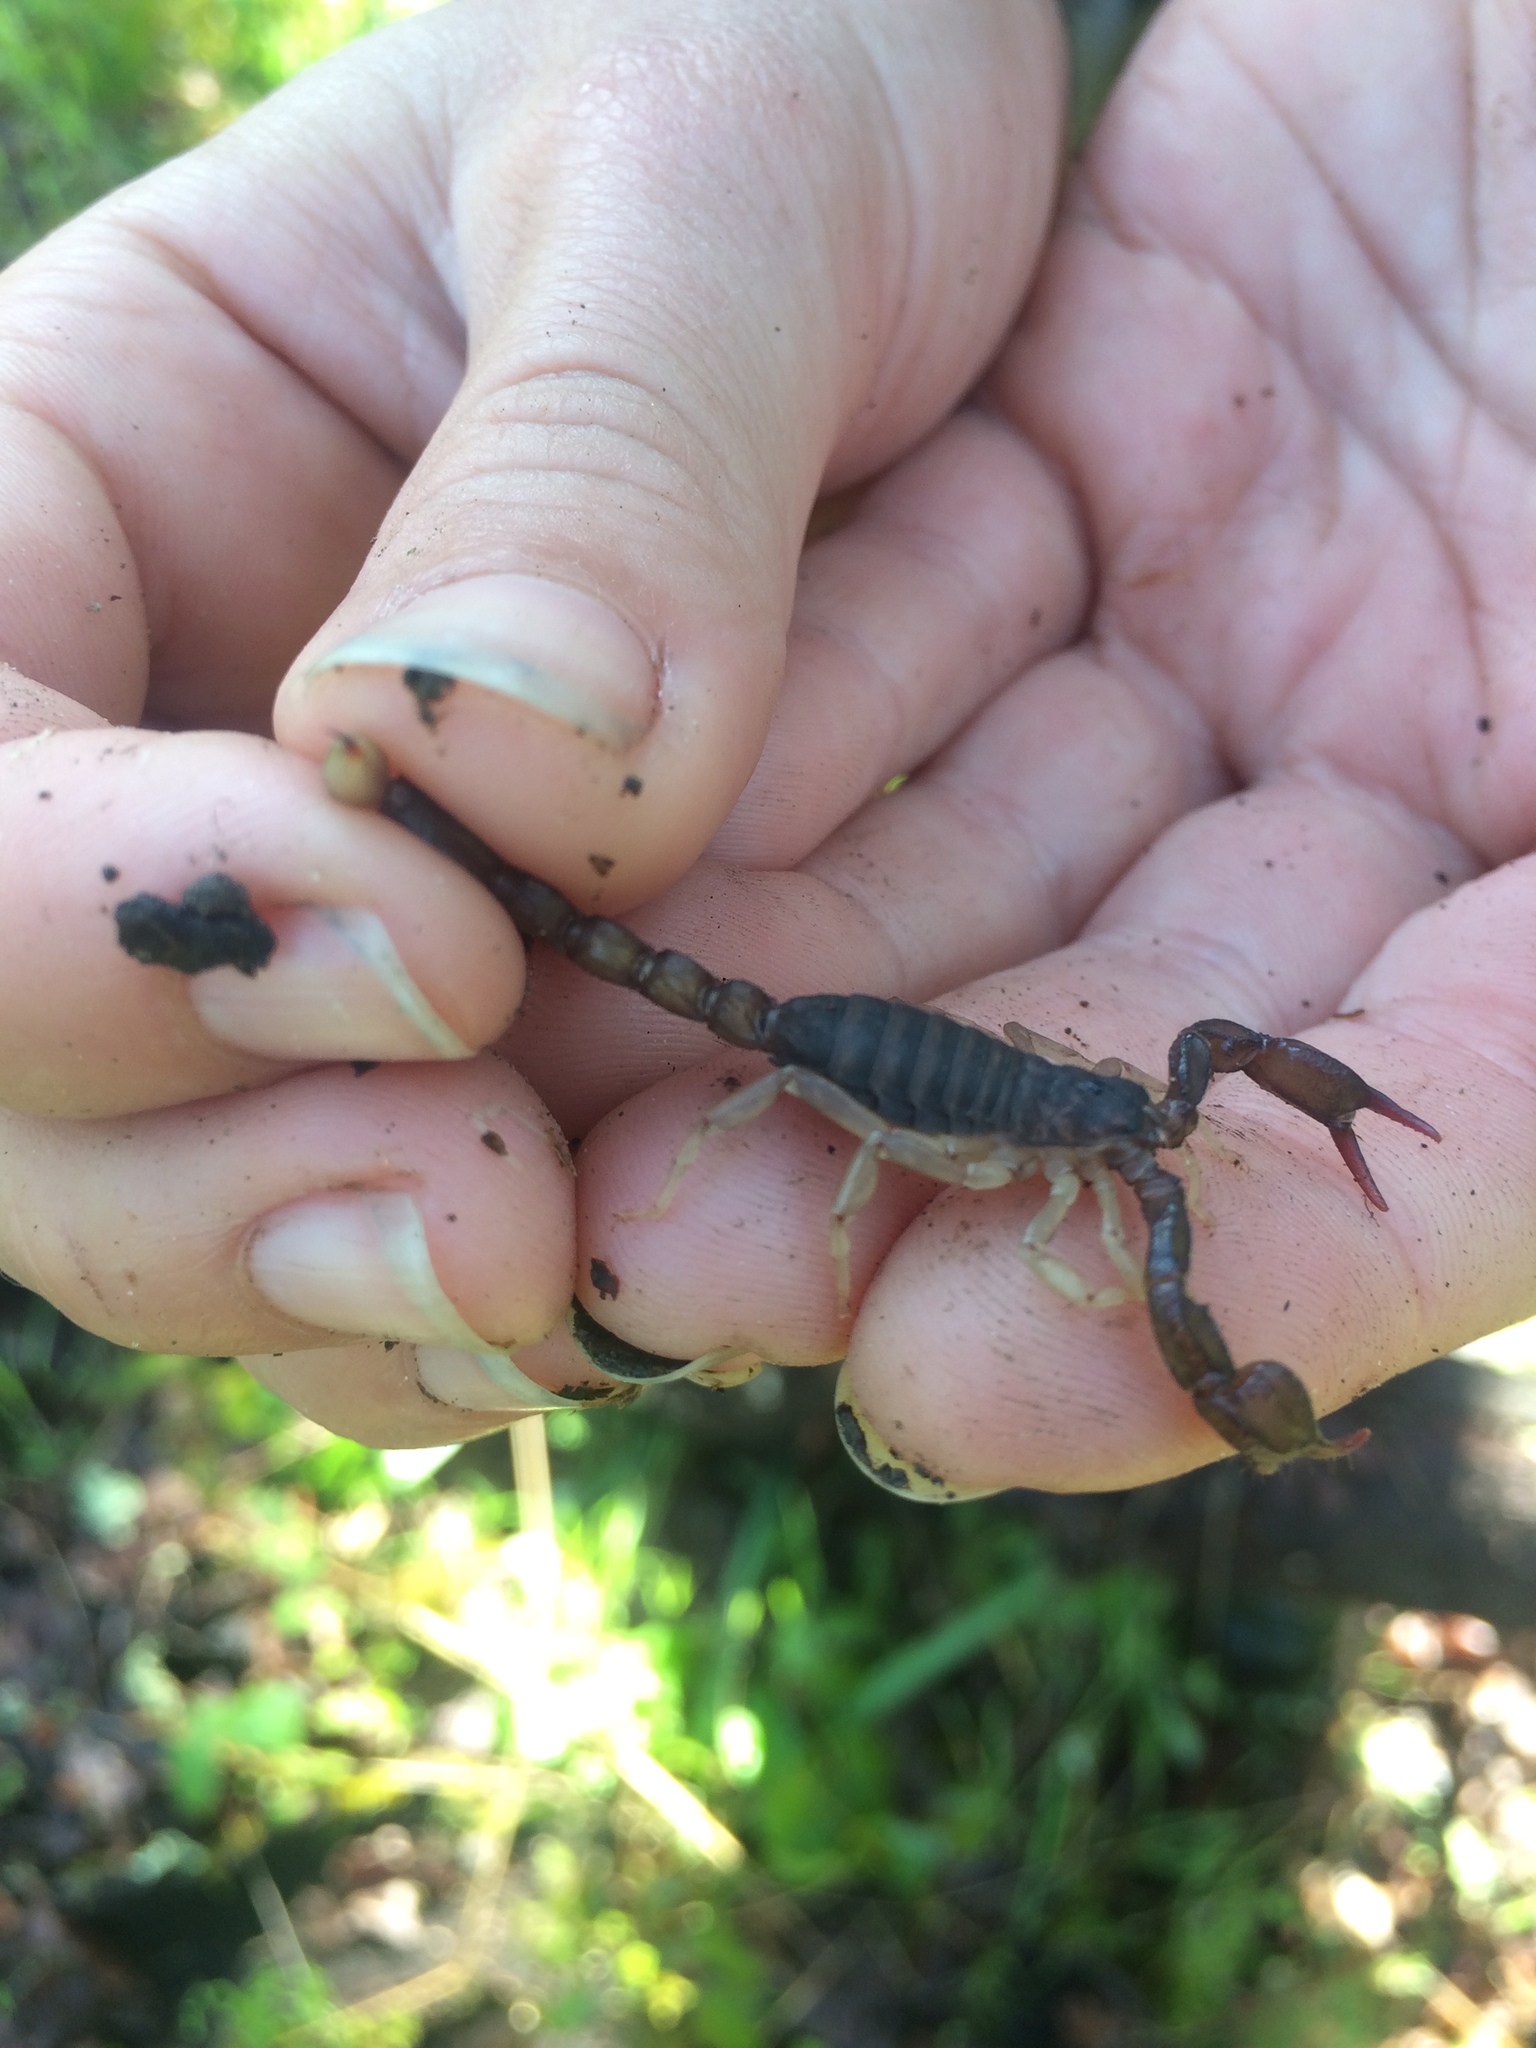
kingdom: Animalia
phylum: Arthropoda
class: Arachnida
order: Scorpiones
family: Chactidae
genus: Uroctonus
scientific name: Uroctonus mordax
